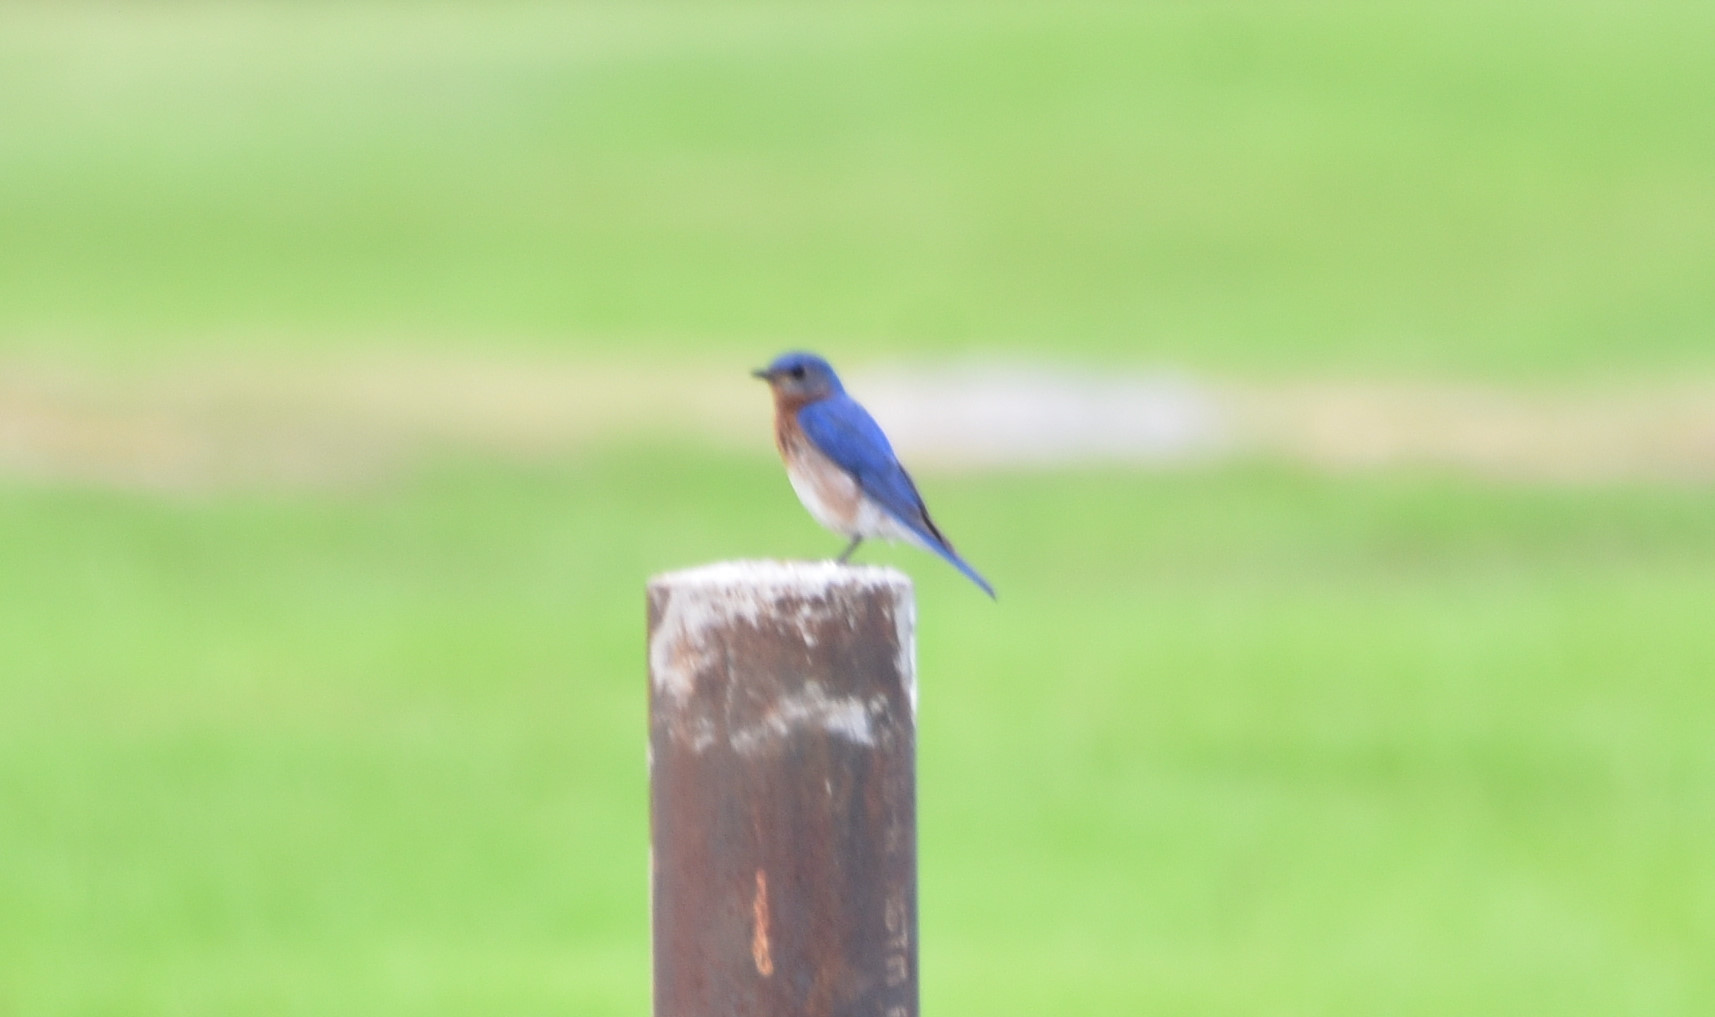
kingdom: Animalia
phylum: Chordata
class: Aves
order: Passeriformes
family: Turdidae
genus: Sialia
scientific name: Sialia sialis
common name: Eastern bluebird
